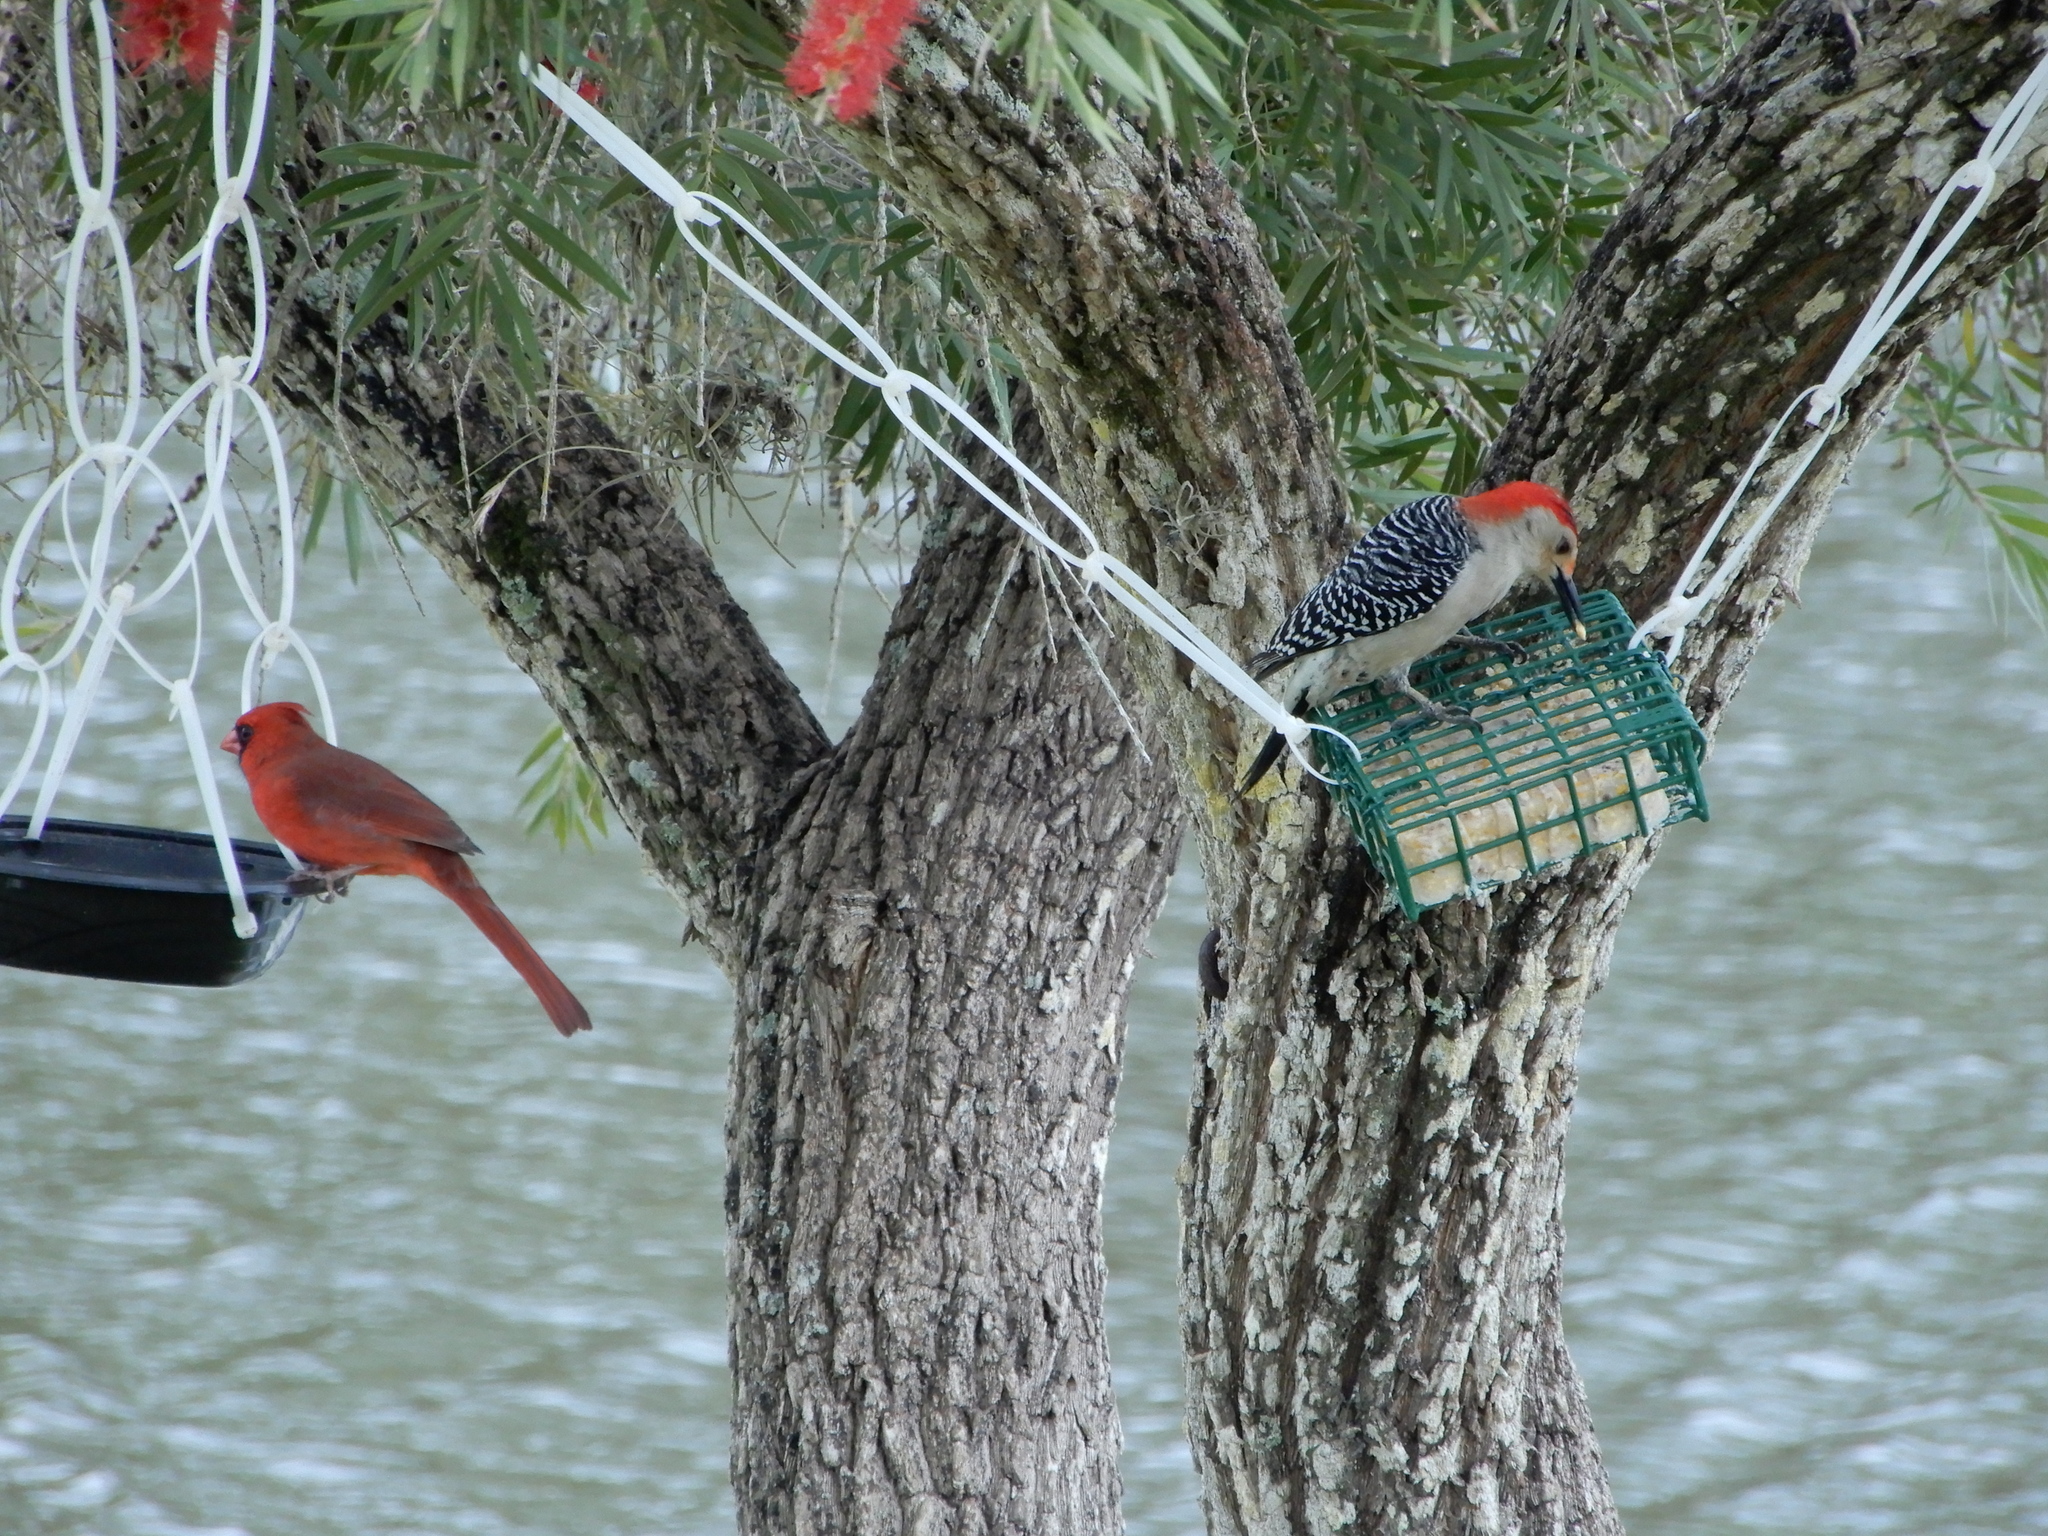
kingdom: Animalia
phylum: Chordata
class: Aves
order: Passeriformes
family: Cardinalidae
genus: Cardinalis
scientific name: Cardinalis cardinalis
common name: Northern cardinal
